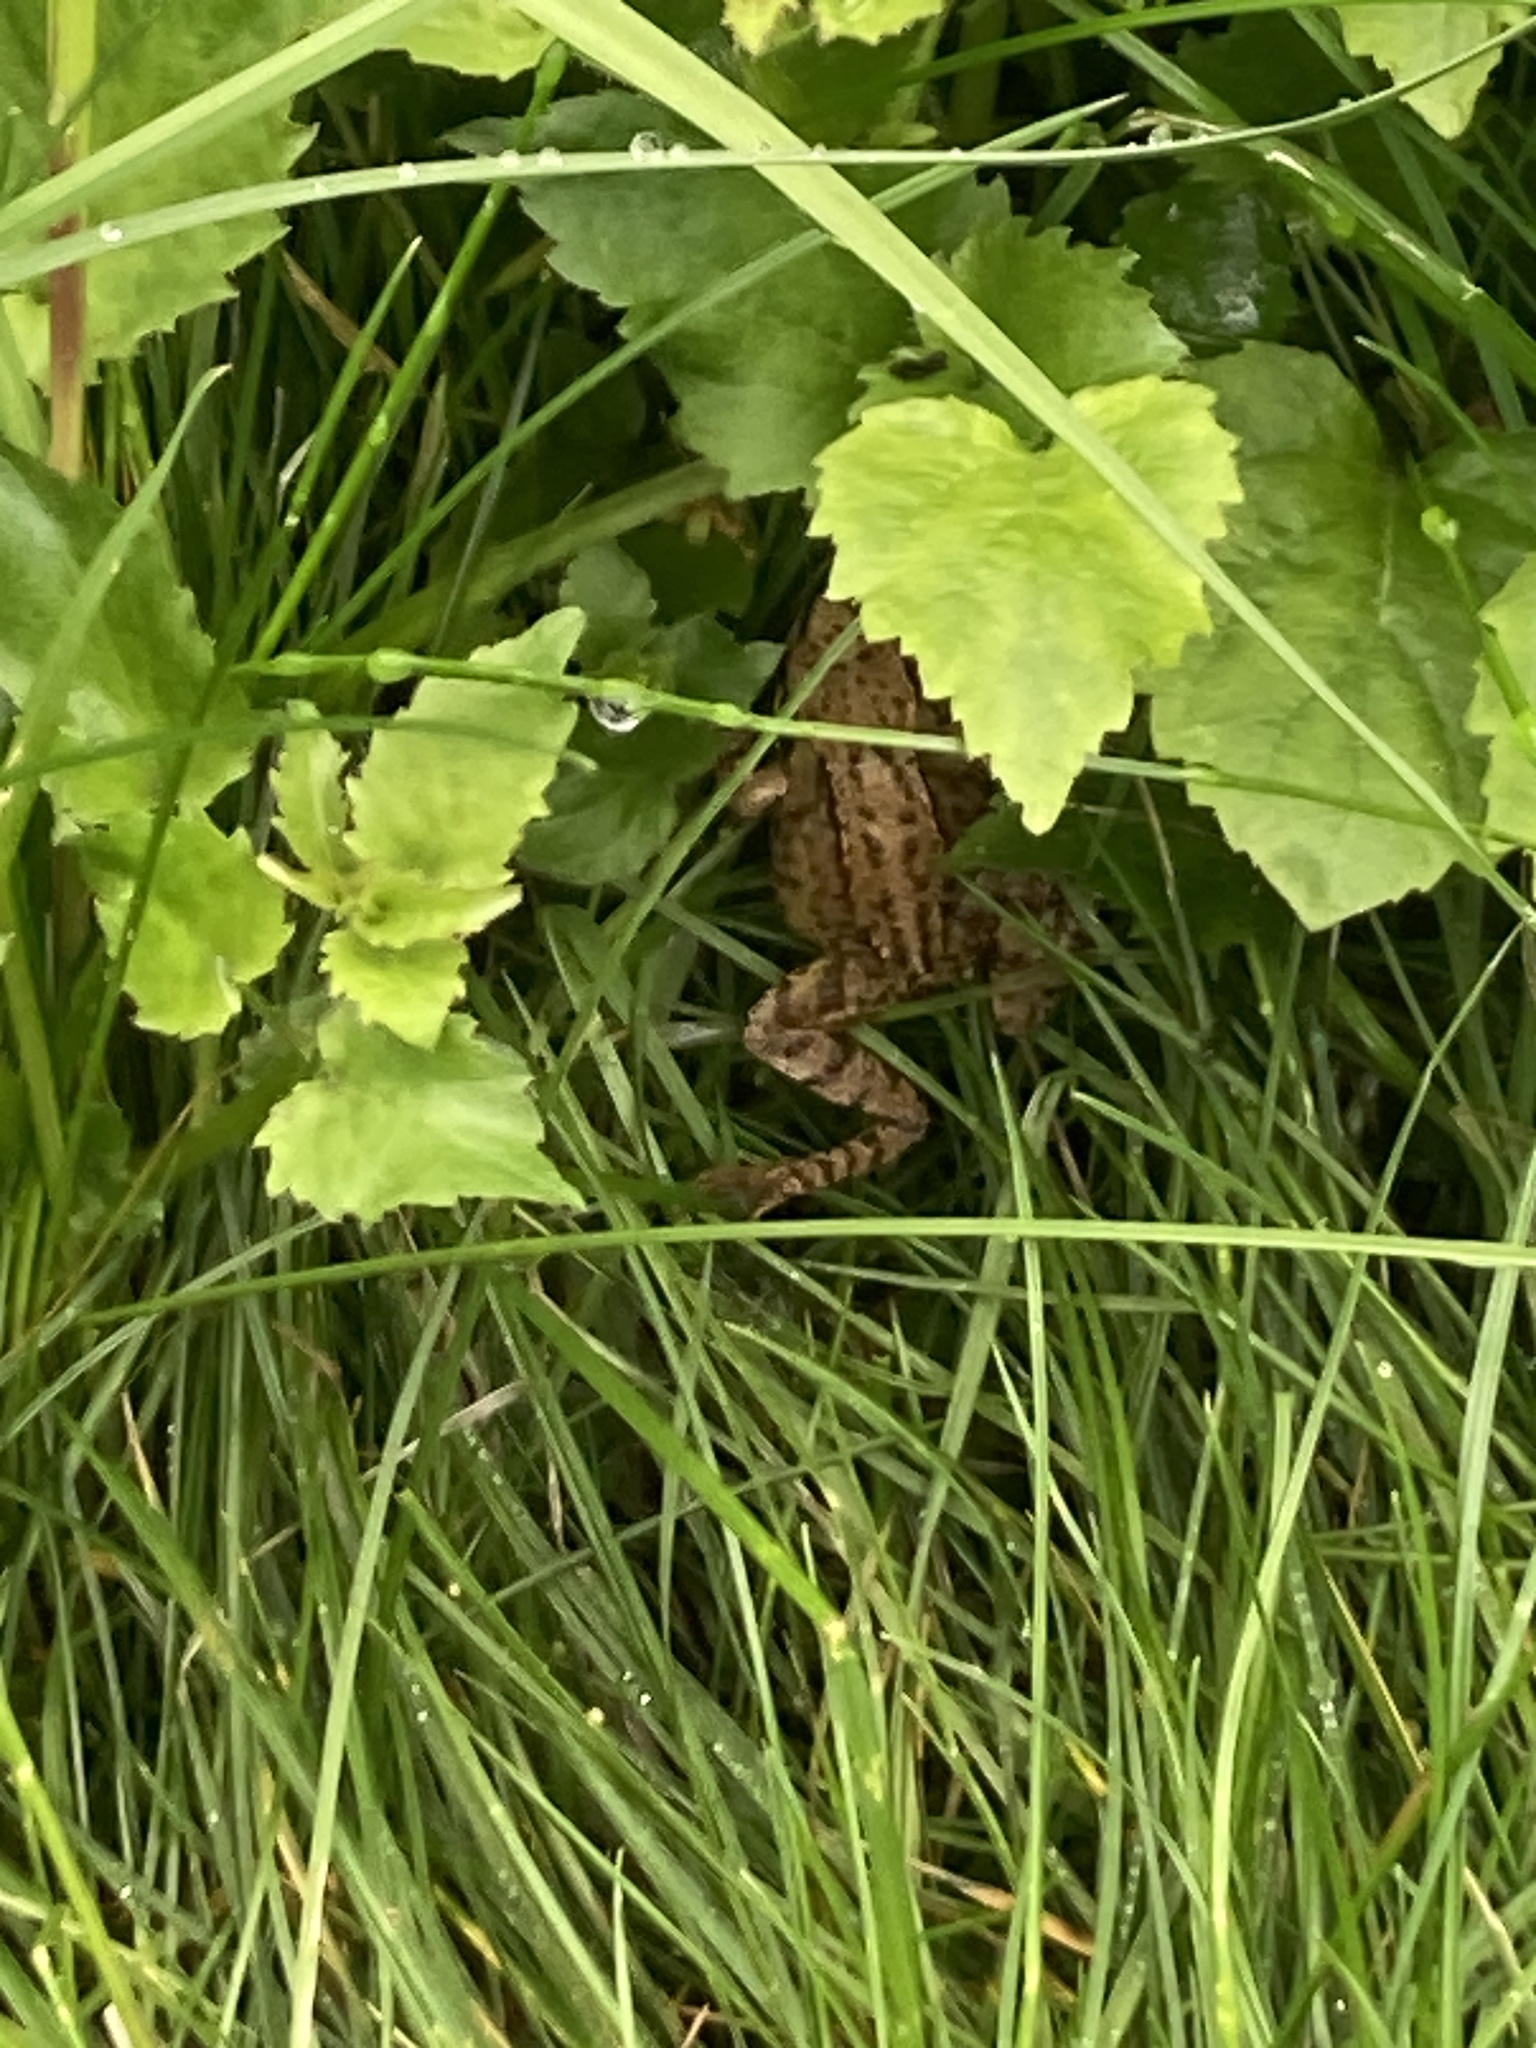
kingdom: Animalia
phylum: Chordata
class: Amphibia
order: Anura
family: Ranidae
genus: Rana
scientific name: Rana temporaria
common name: Common frog
